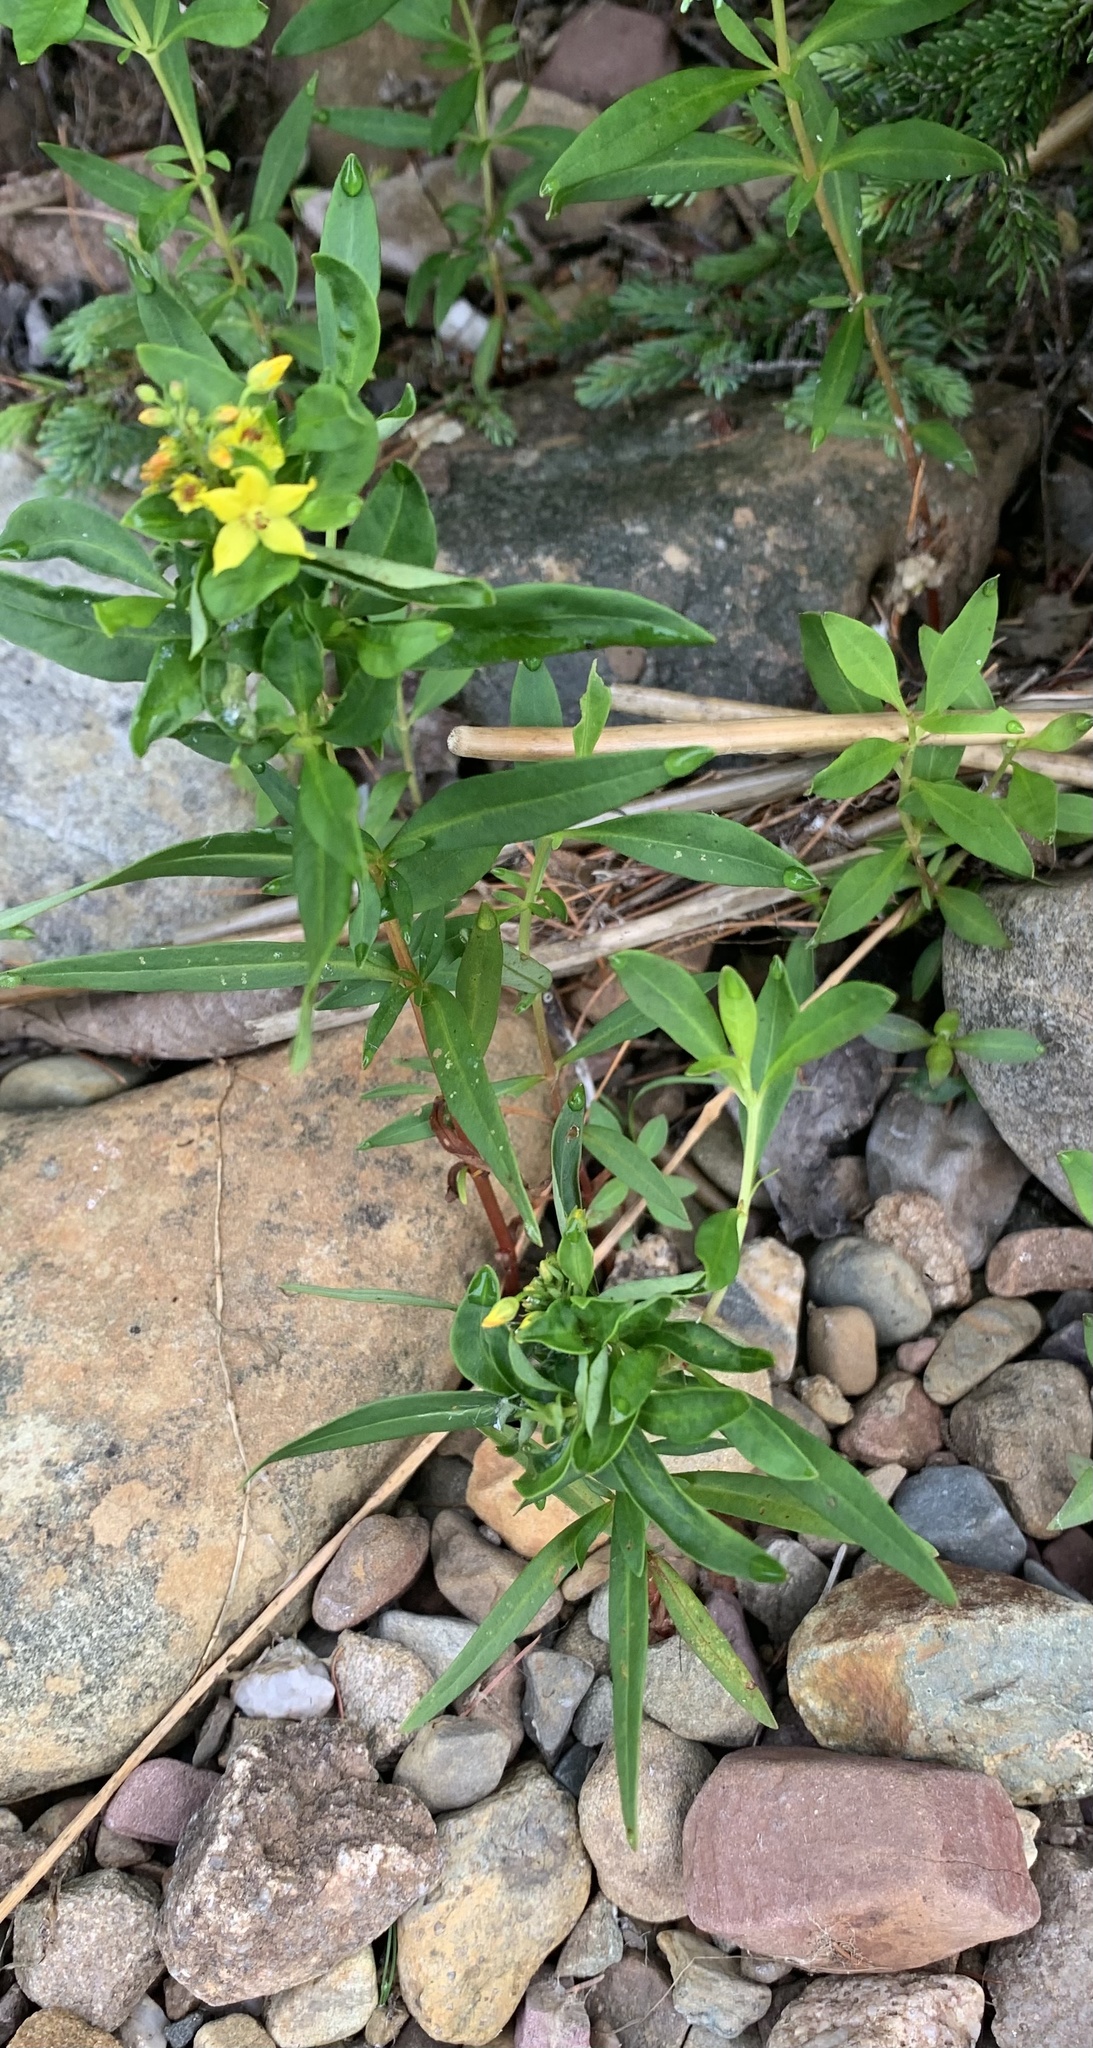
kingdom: Plantae
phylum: Tracheophyta
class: Magnoliopsida
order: Ericales
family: Primulaceae
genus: Lysimachia
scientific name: Lysimachia terrestris
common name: Lake loosestrife
